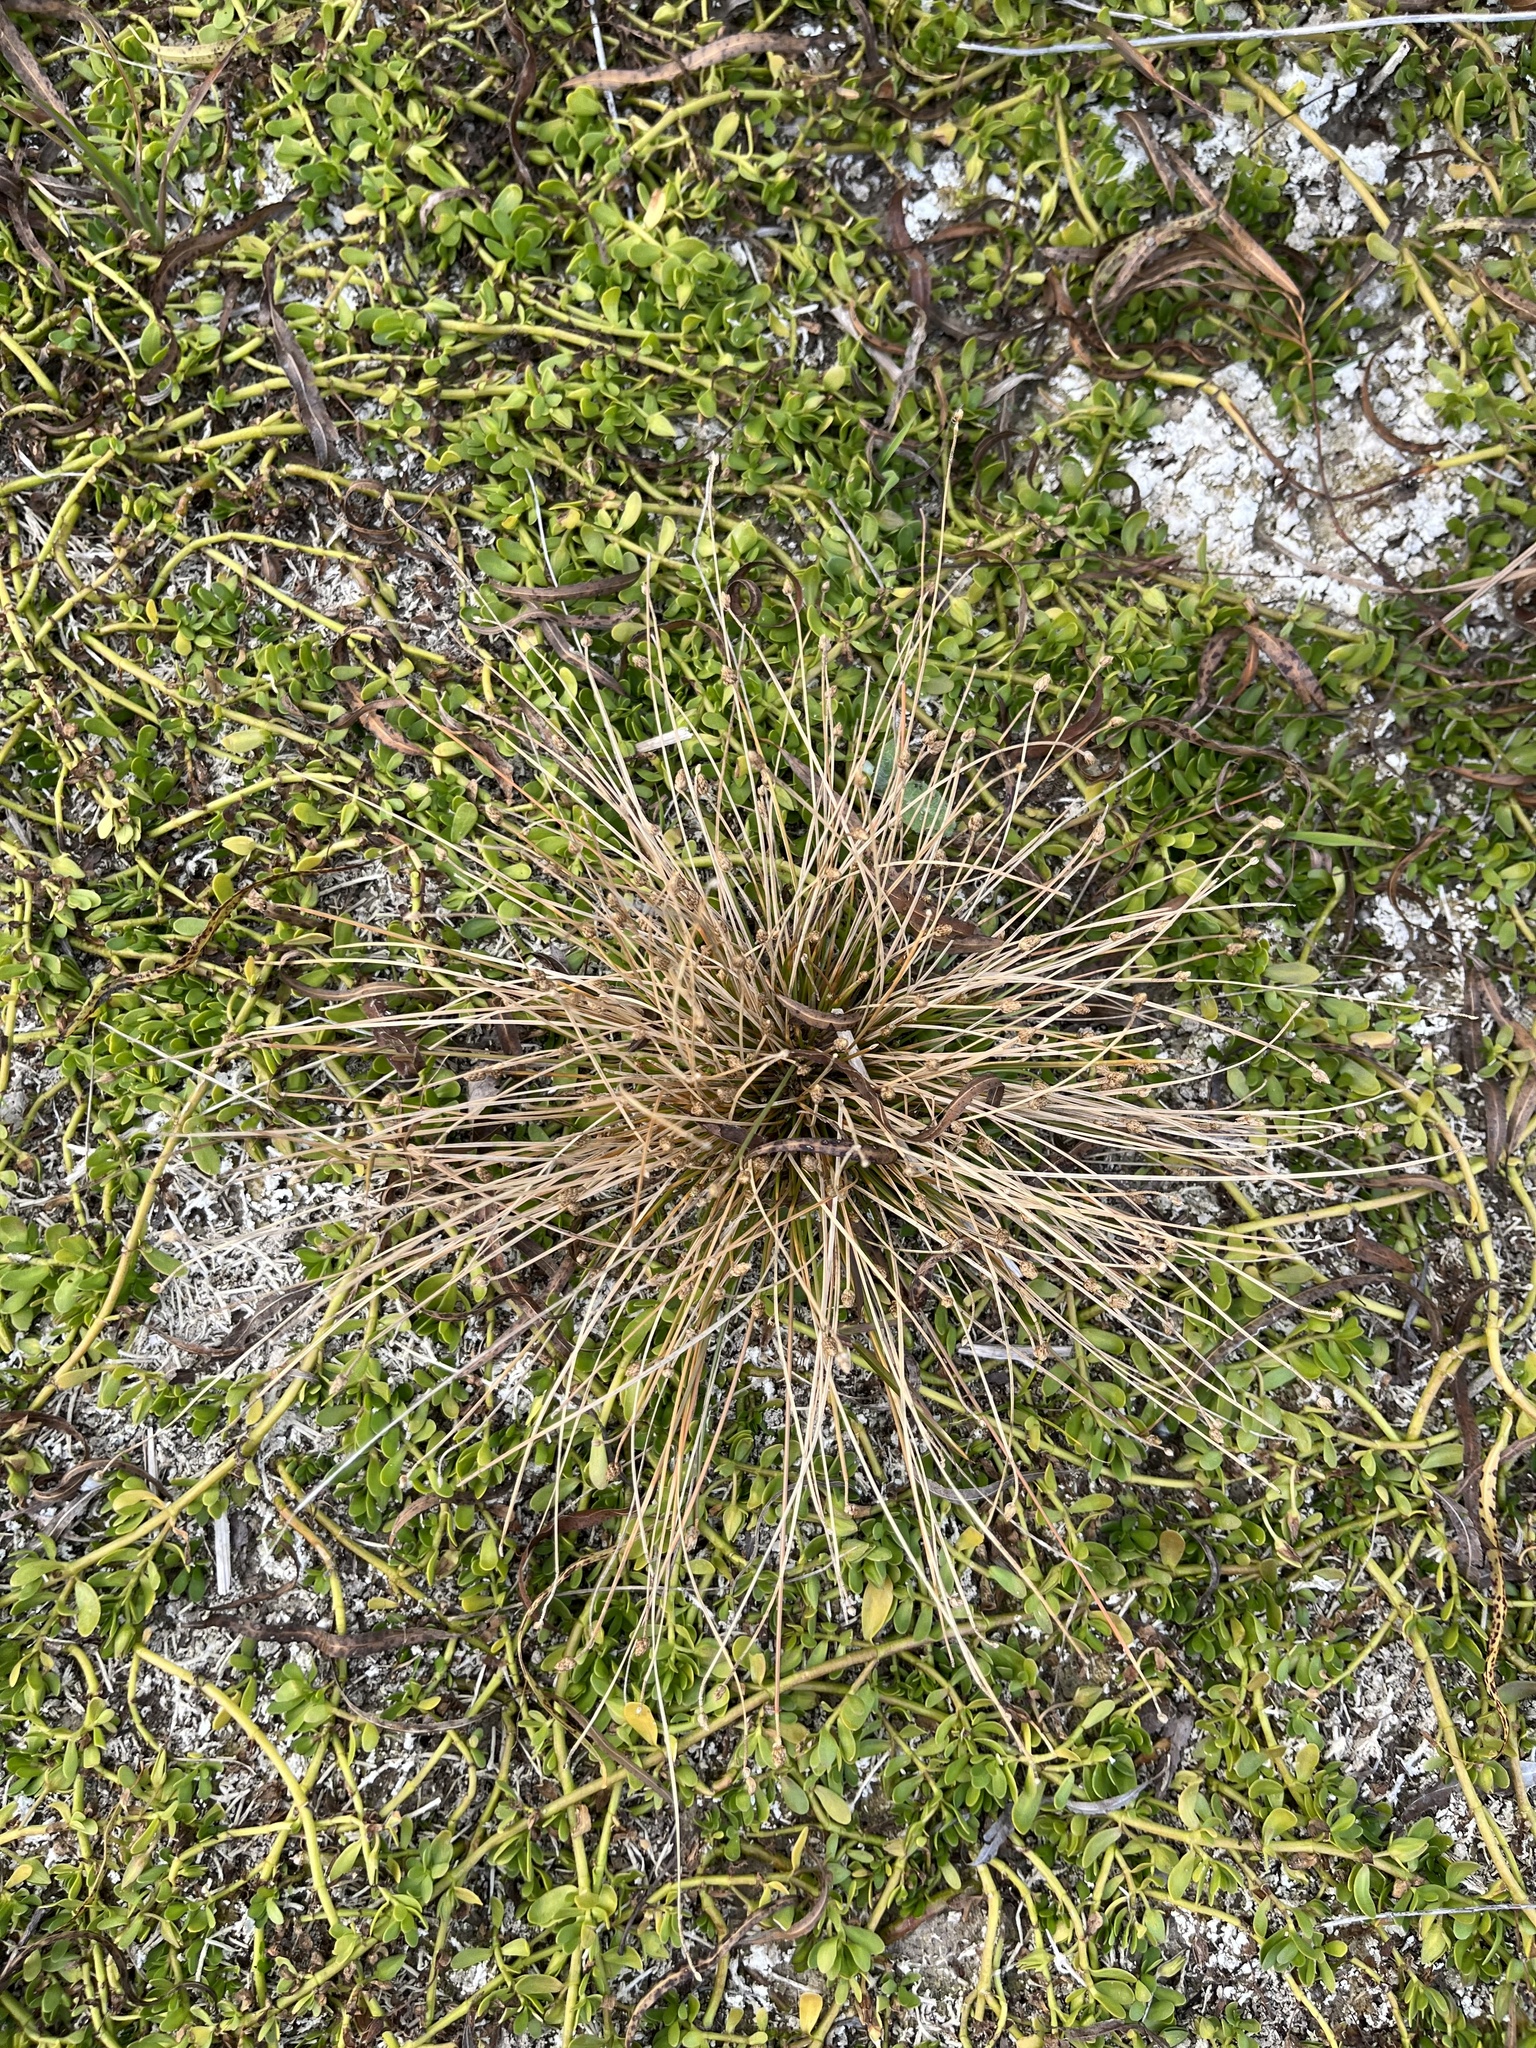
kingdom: Plantae
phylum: Tracheophyta
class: Liliopsida
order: Poales
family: Cyperaceae
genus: Eleocharis
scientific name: Eleocharis geniculata
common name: Canada spikesedge
